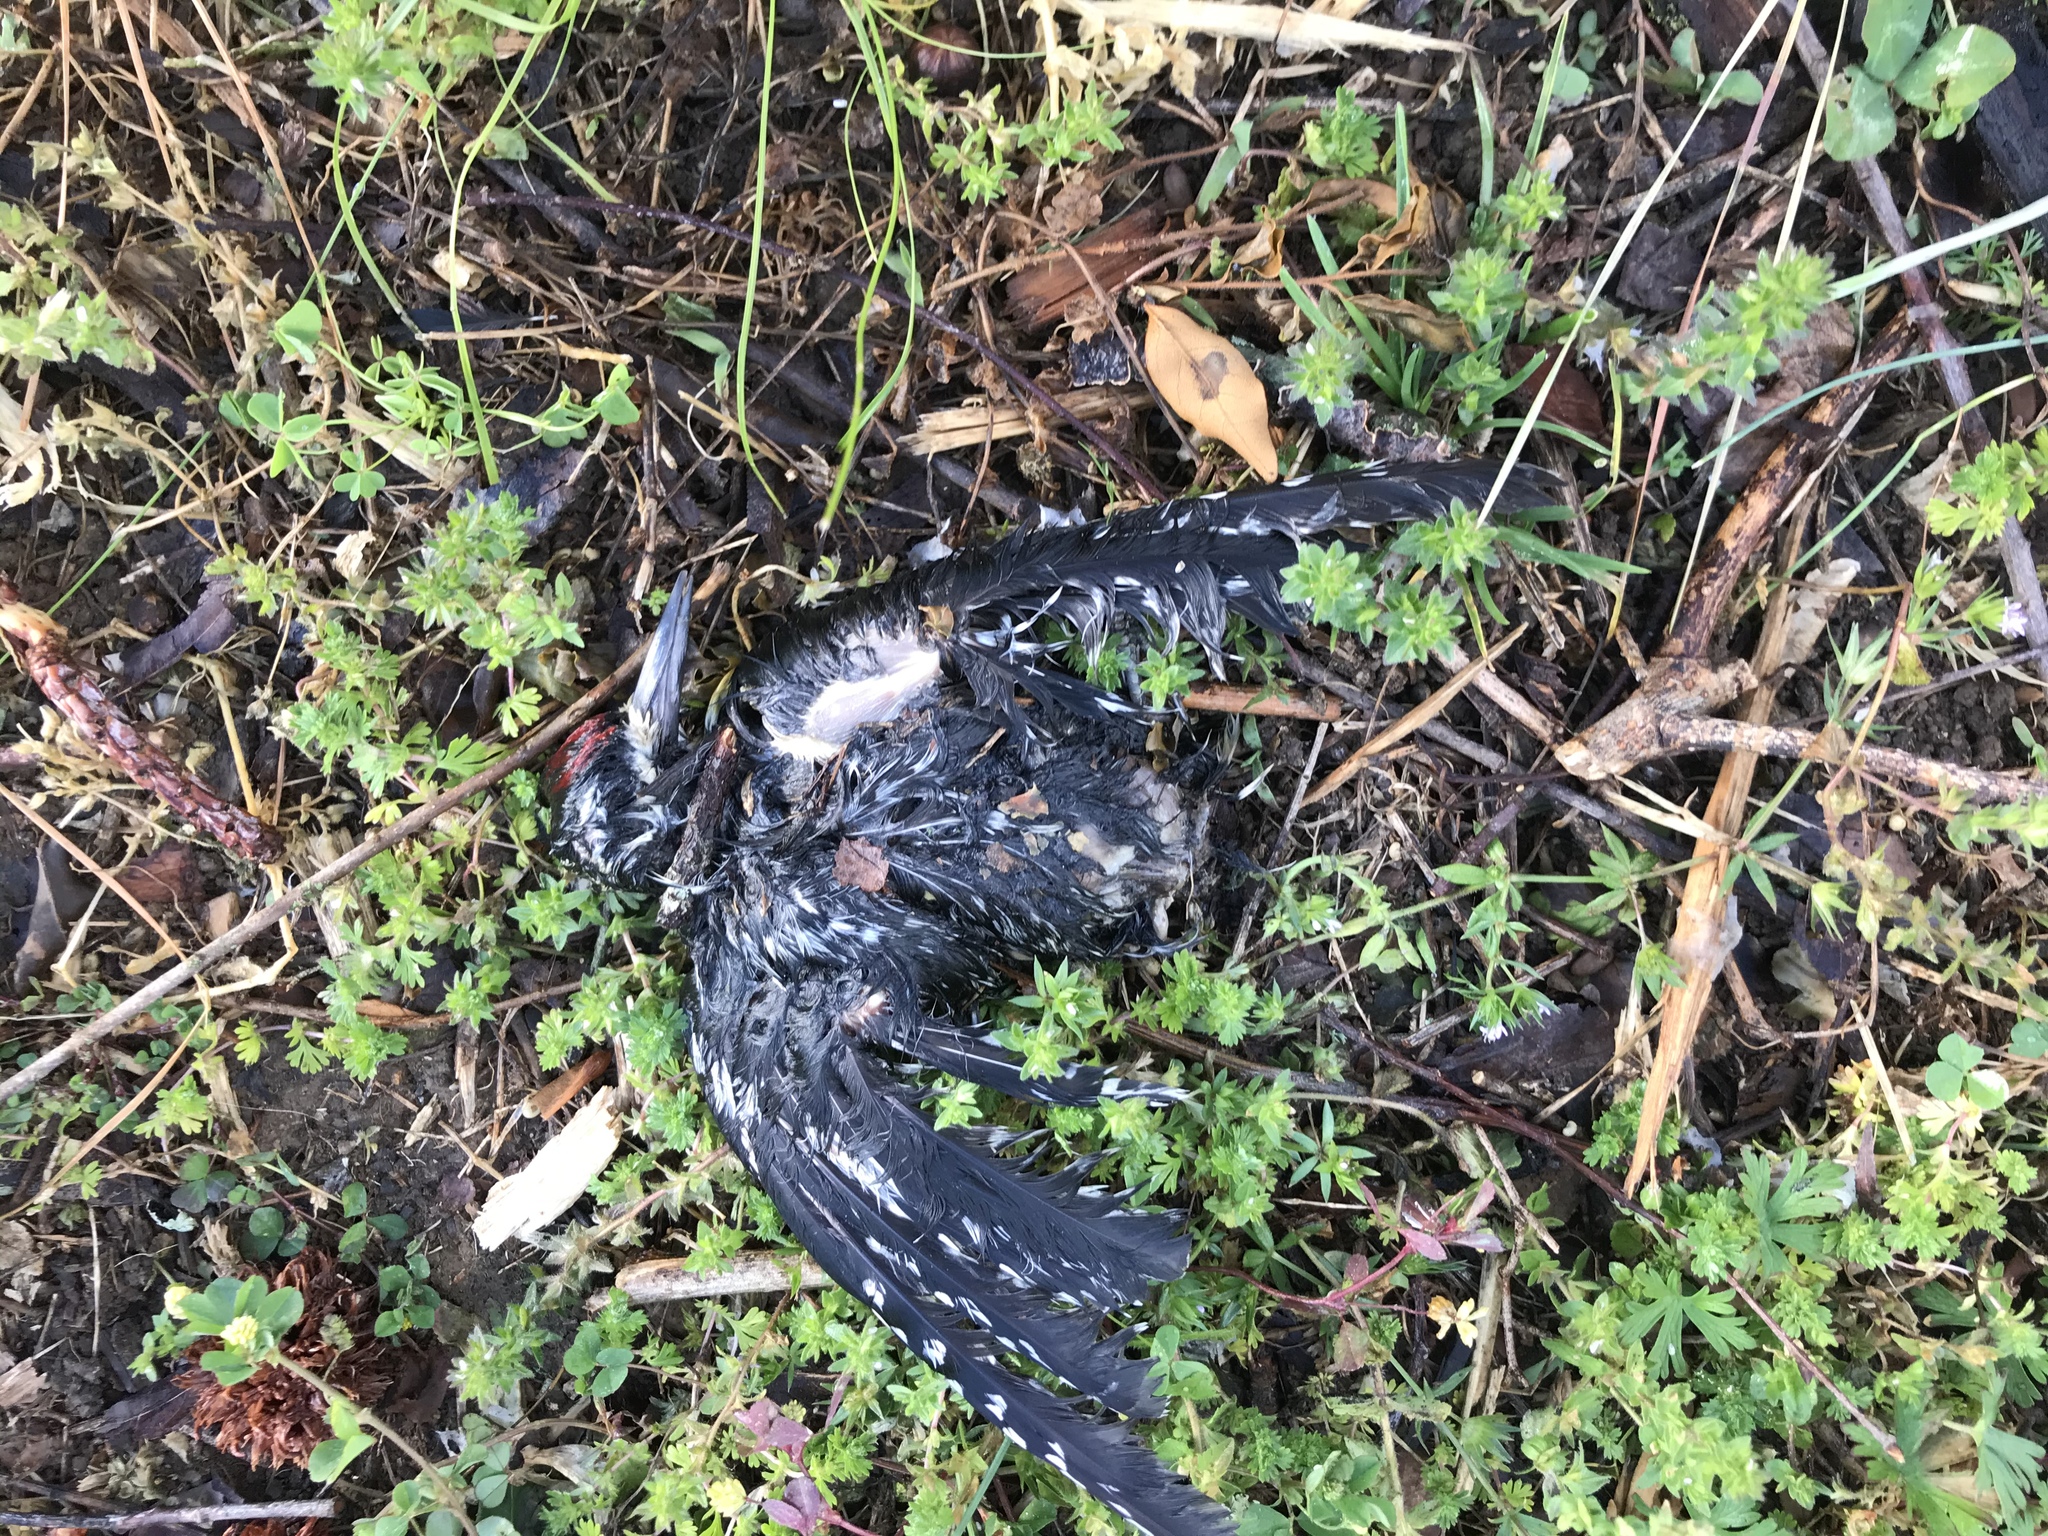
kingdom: Animalia
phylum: Chordata
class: Aves
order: Piciformes
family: Picidae
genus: Sphyrapicus
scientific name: Sphyrapicus varius
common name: Yellow-bellied sapsucker
